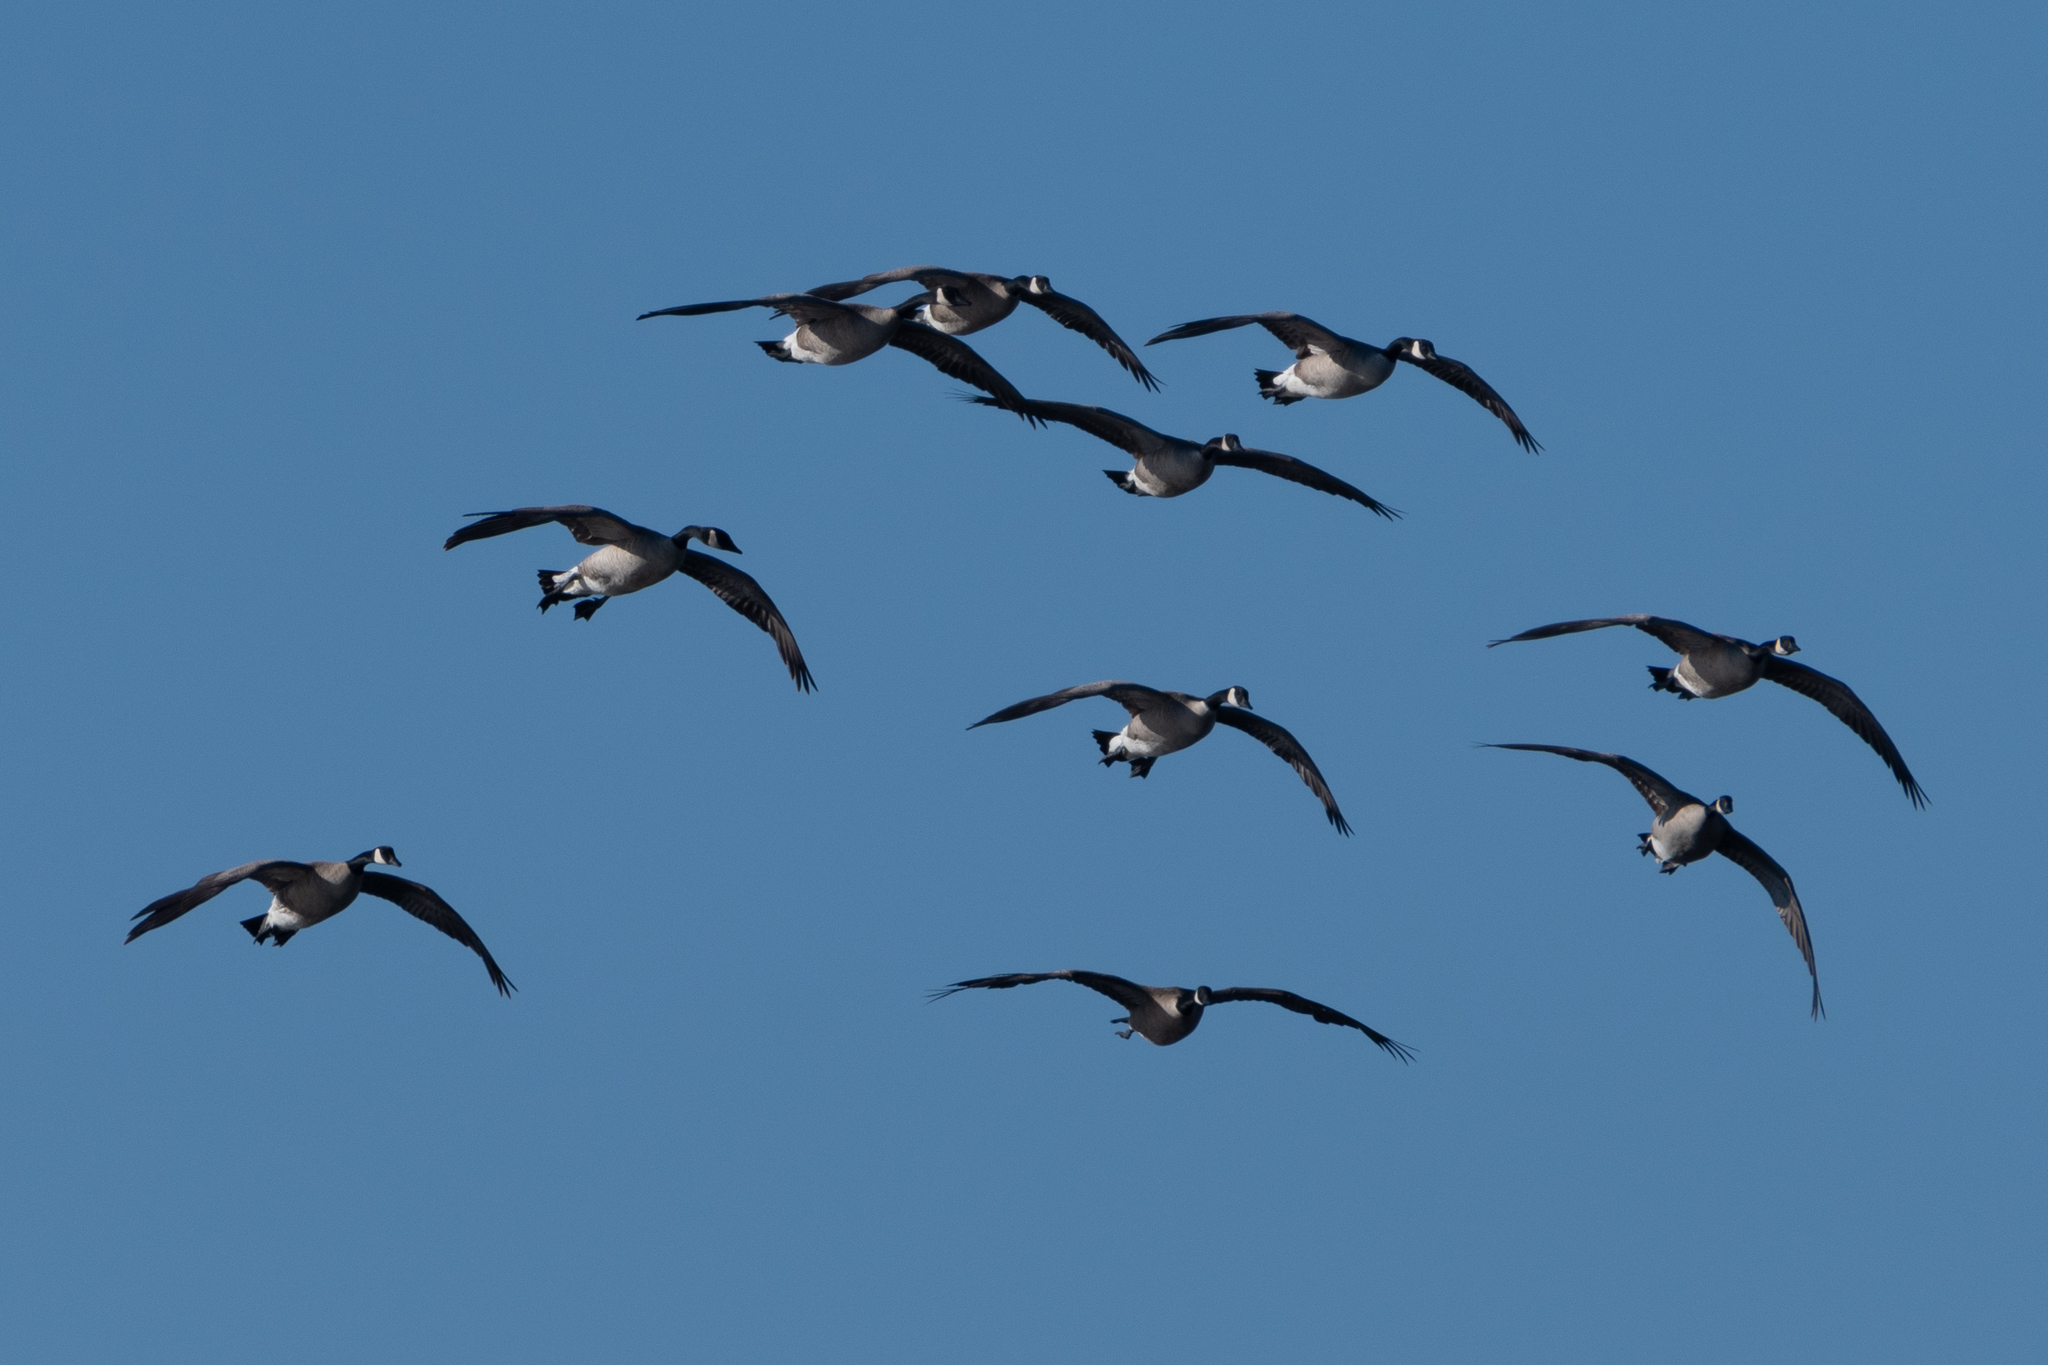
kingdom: Animalia
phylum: Chordata
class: Aves
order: Anseriformes
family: Anatidae
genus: Branta
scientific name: Branta canadensis
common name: Canada goose
